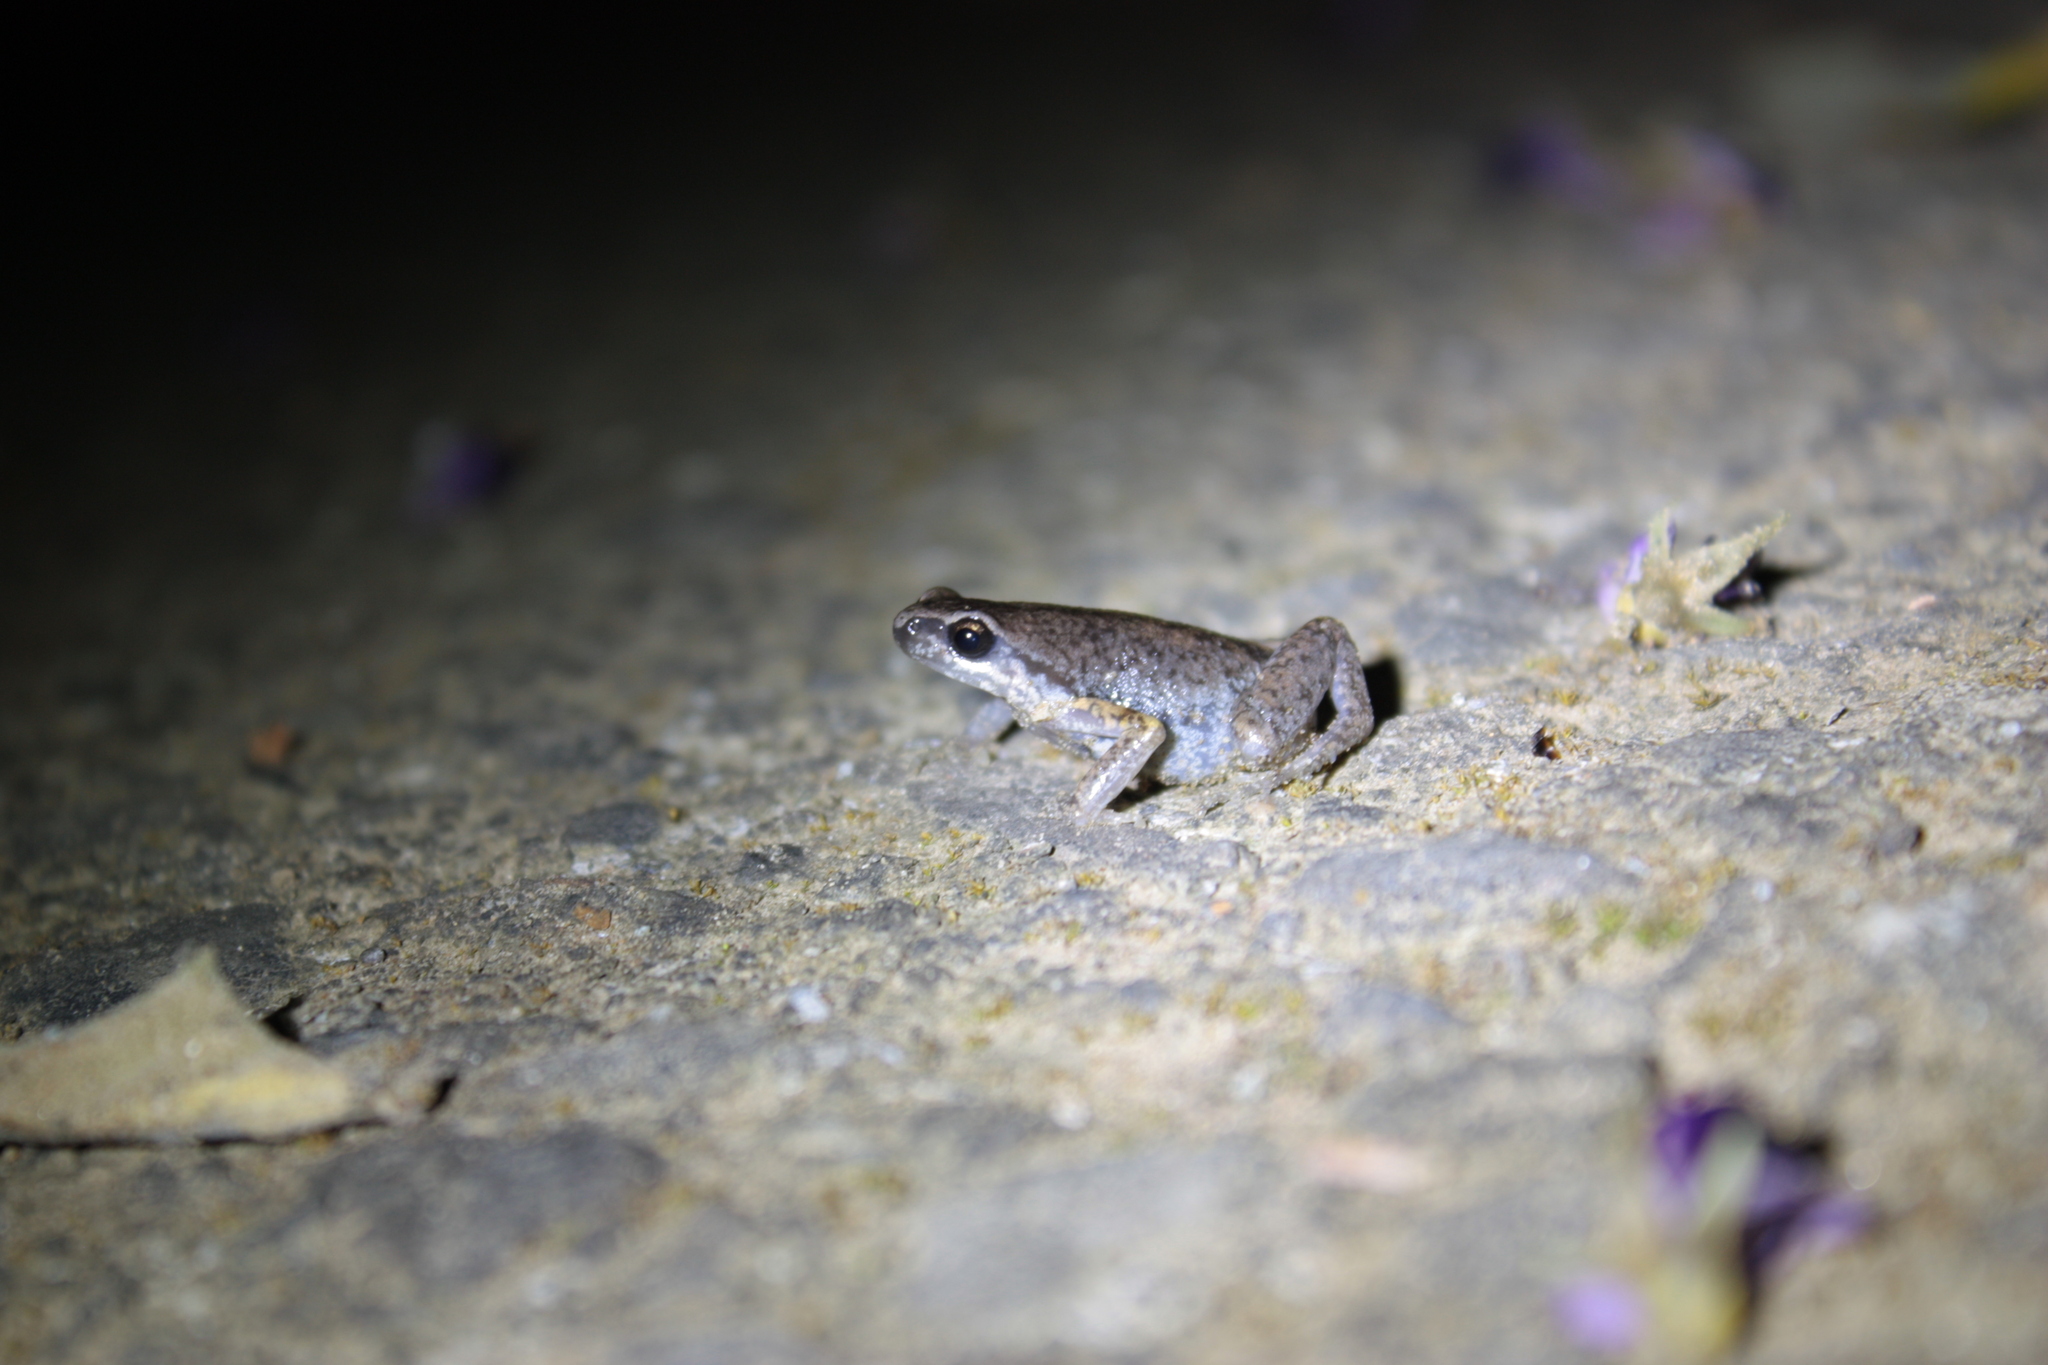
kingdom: Animalia
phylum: Chordata
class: Amphibia
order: Anura
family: Microhylidae
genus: Micryletta
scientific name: Micryletta steinegeri
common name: Stejneger's paddy frog
